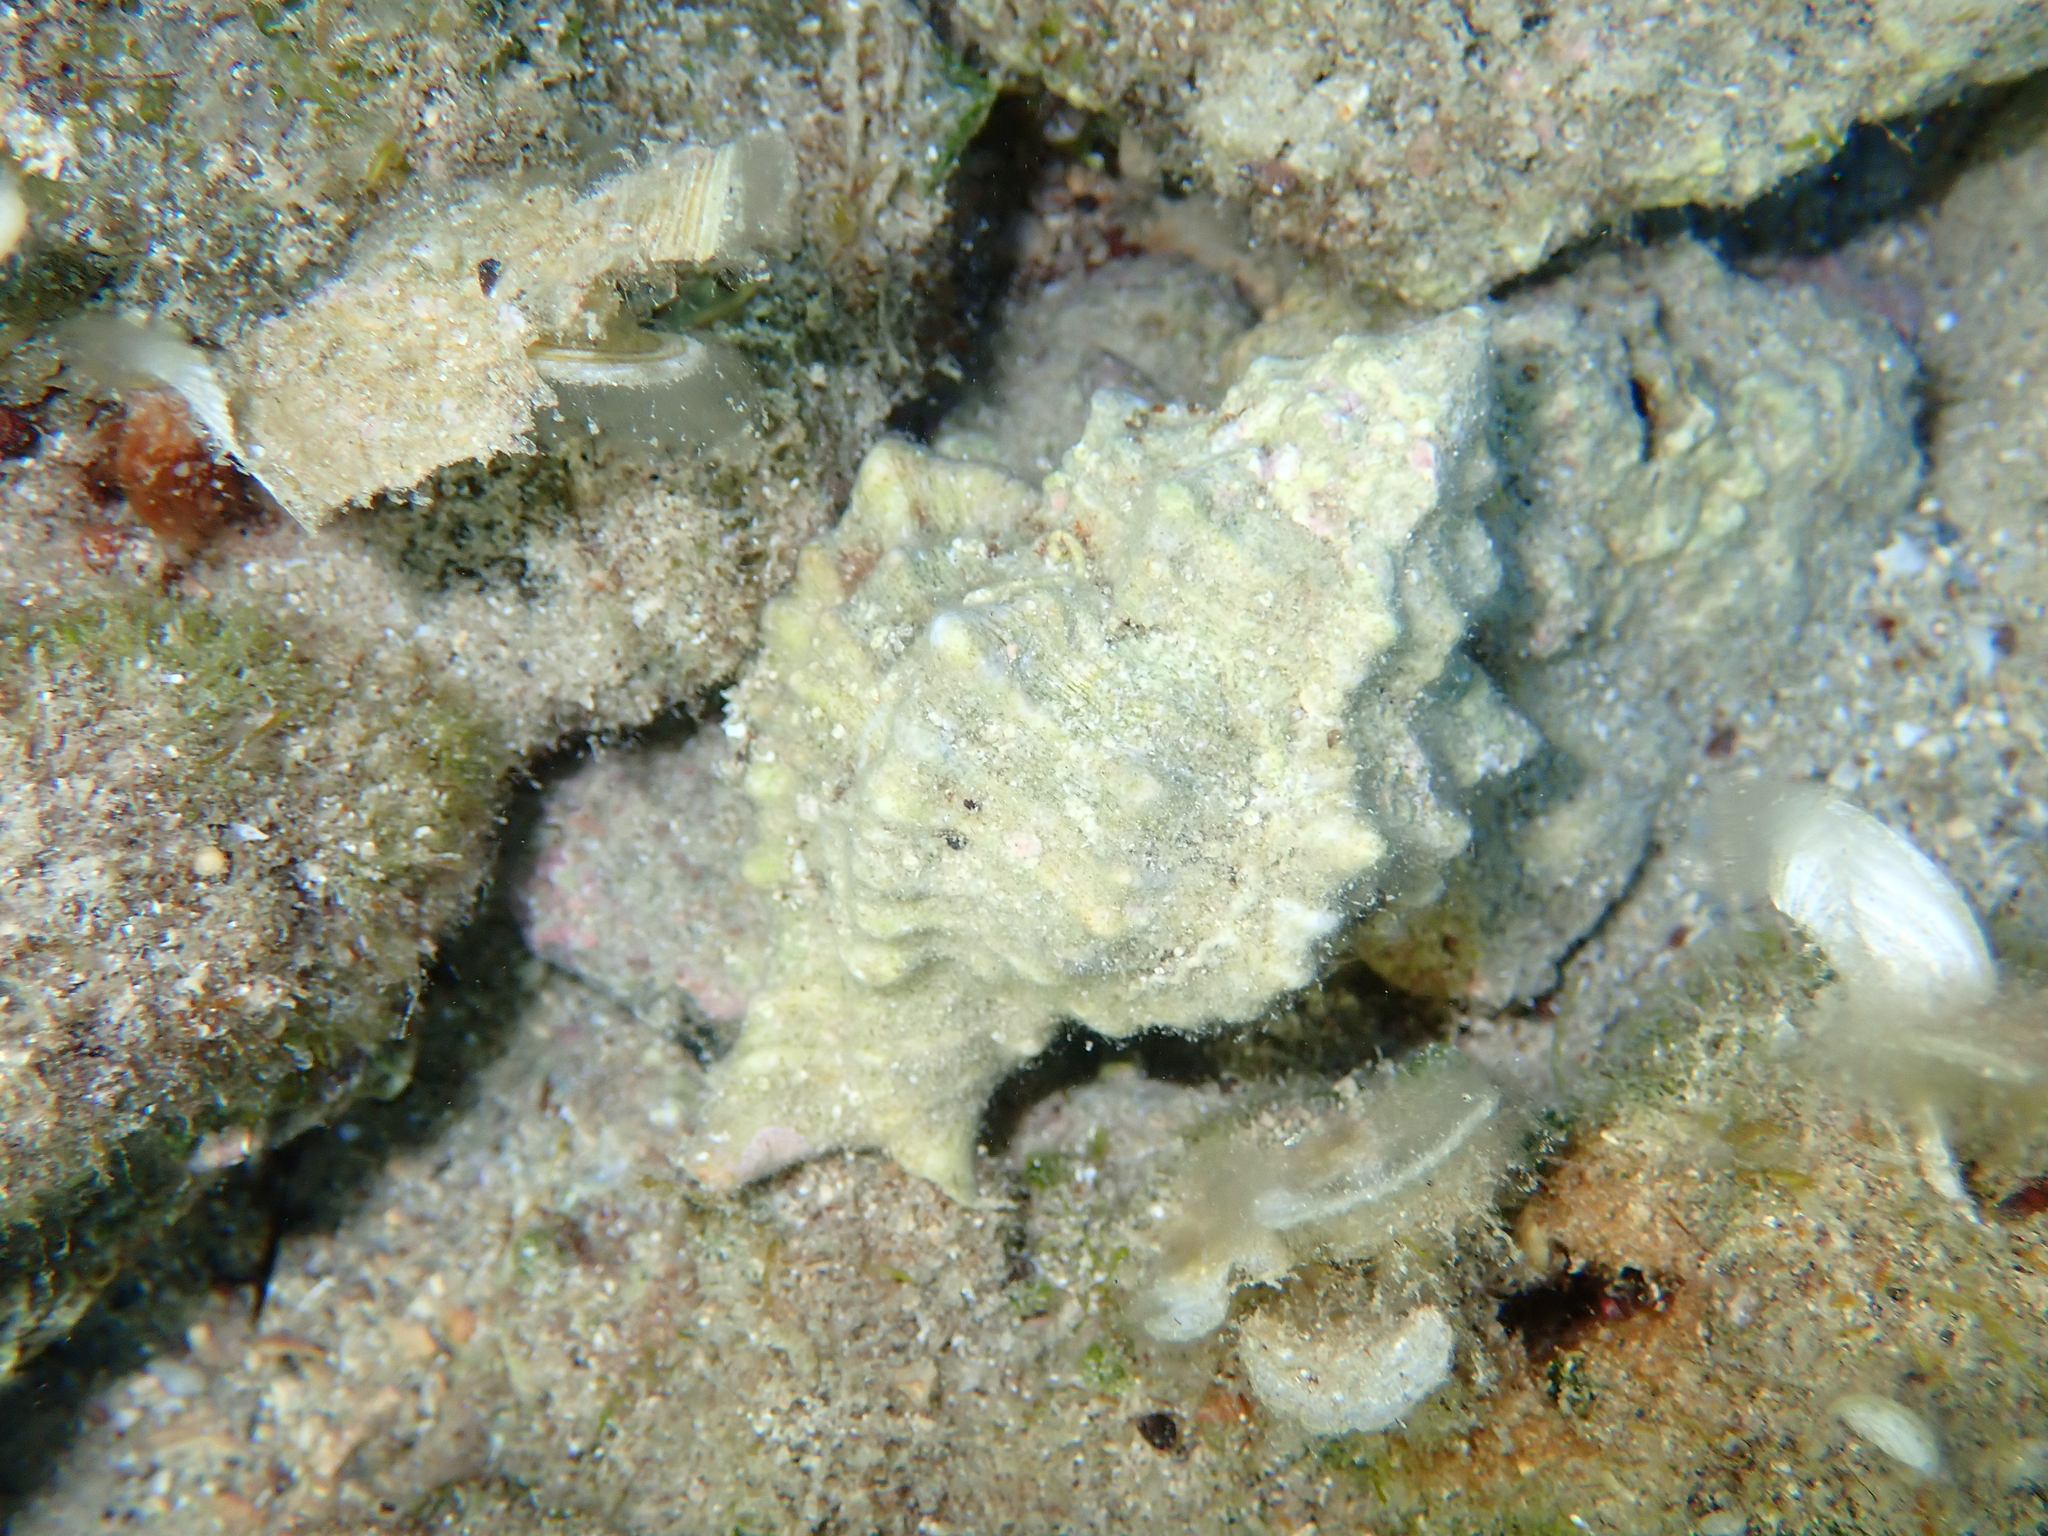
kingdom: Animalia
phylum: Mollusca
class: Gastropoda
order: Neogastropoda
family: Muricidae
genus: Hexaplex
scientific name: Hexaplex trunculus
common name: Banded dye-murex
